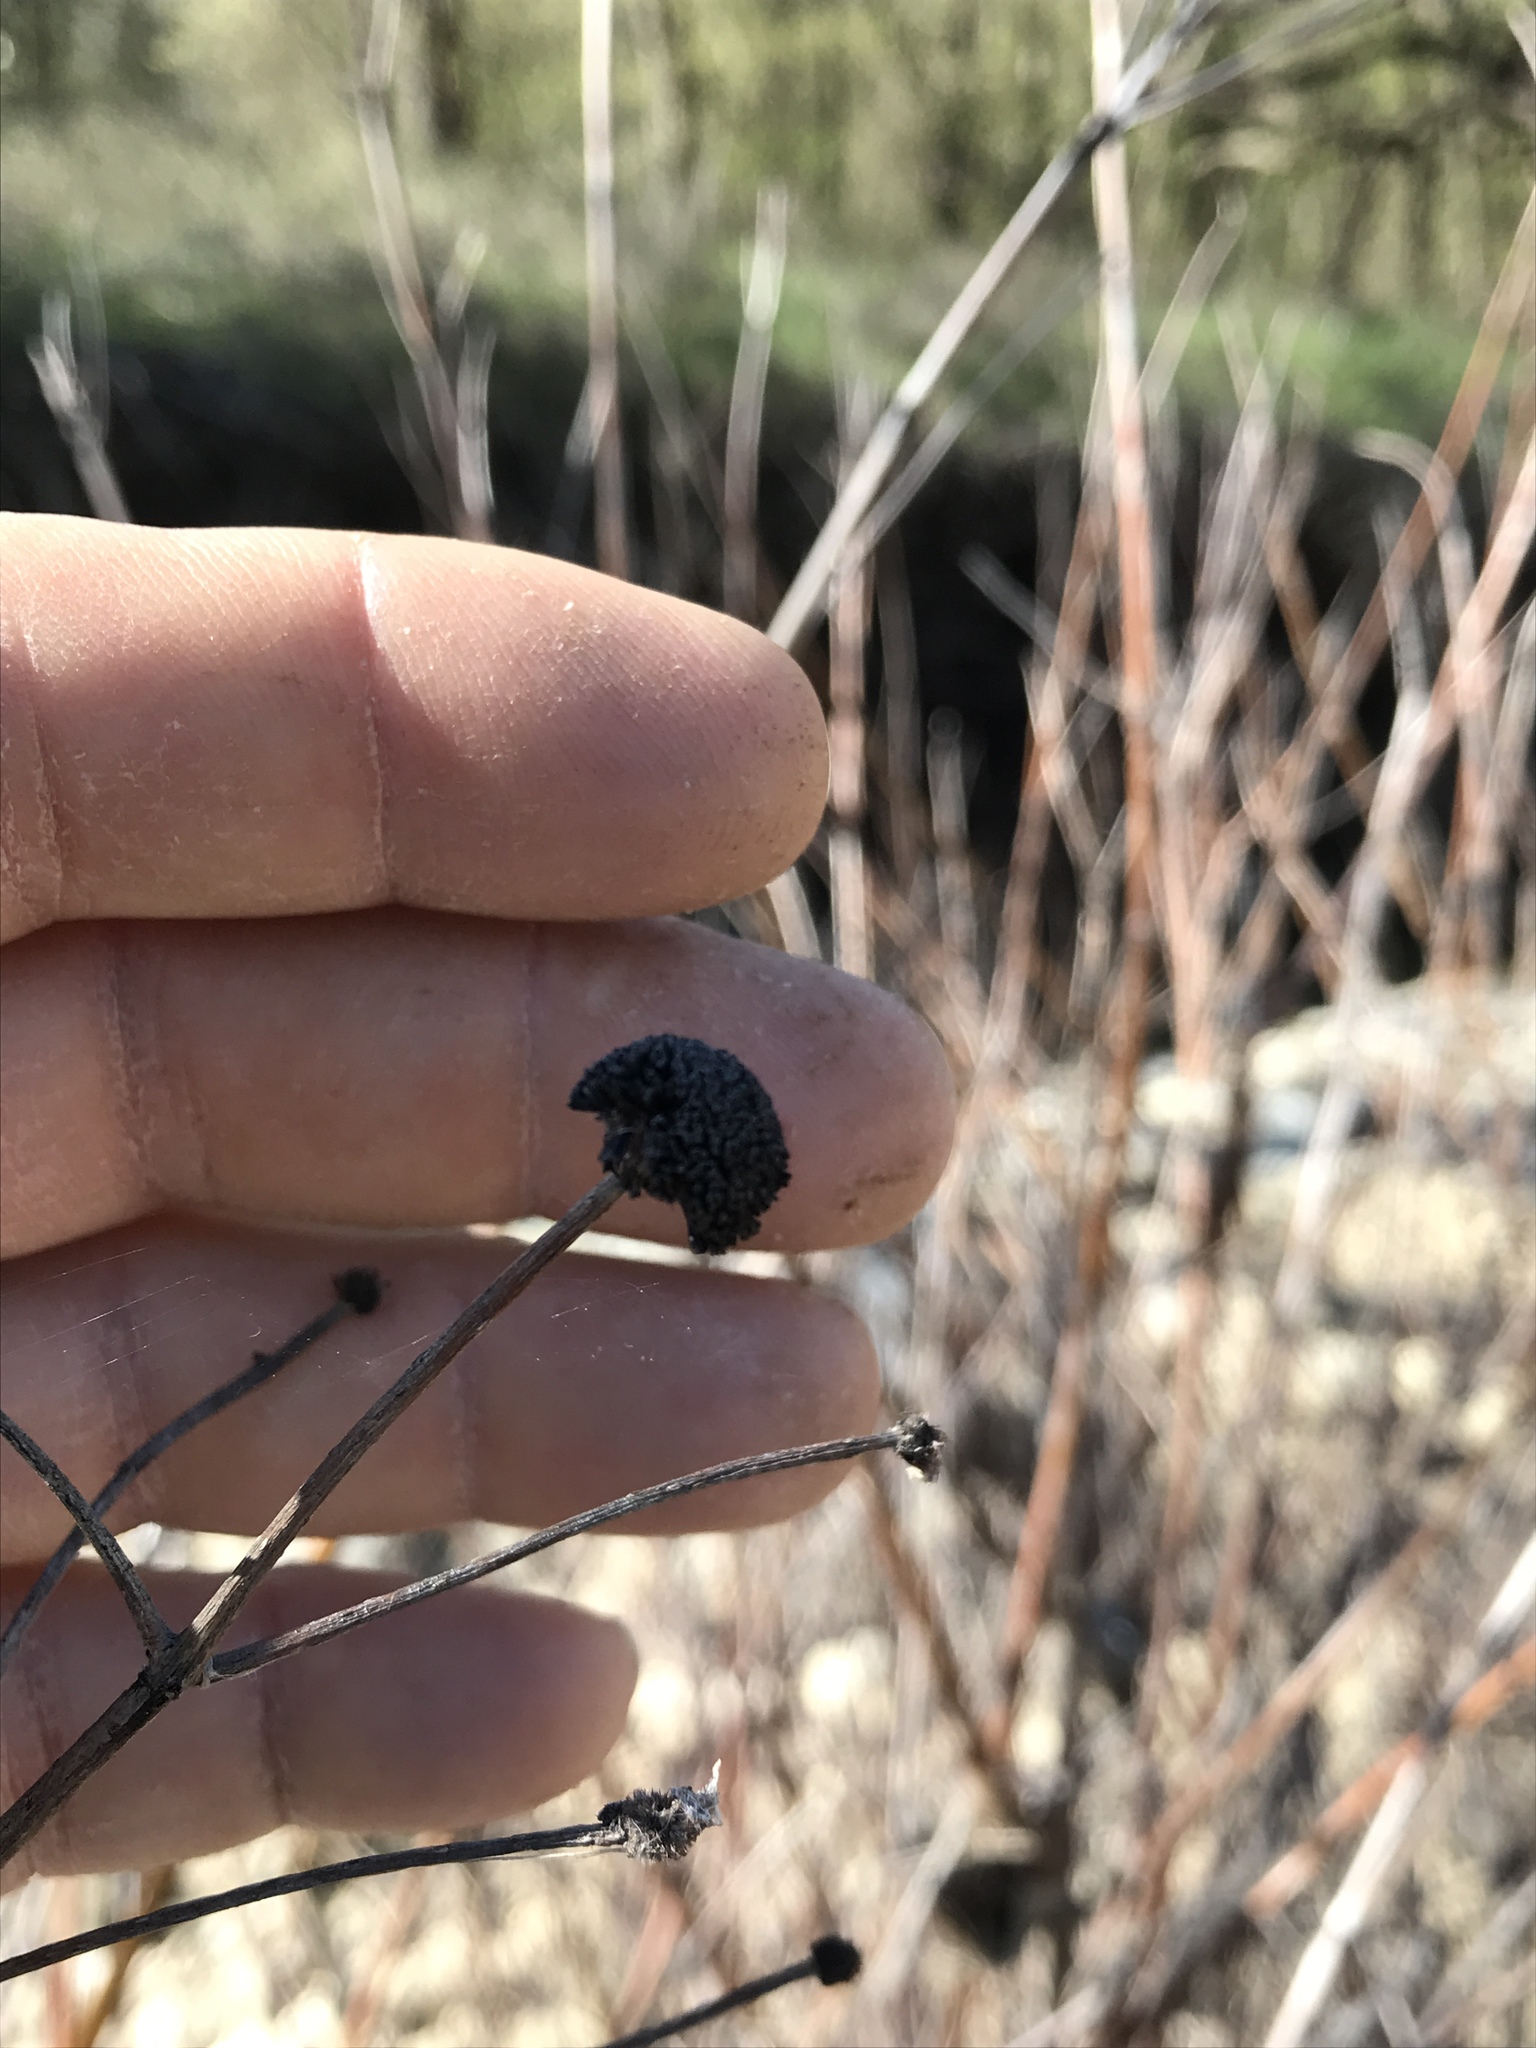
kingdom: Plantae
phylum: Tracheophyta
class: Magnoliopsida
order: Gentianales
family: Rubiaceae
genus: Cephalanthus
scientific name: Cephalanthus occidentalis
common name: Button-willow
